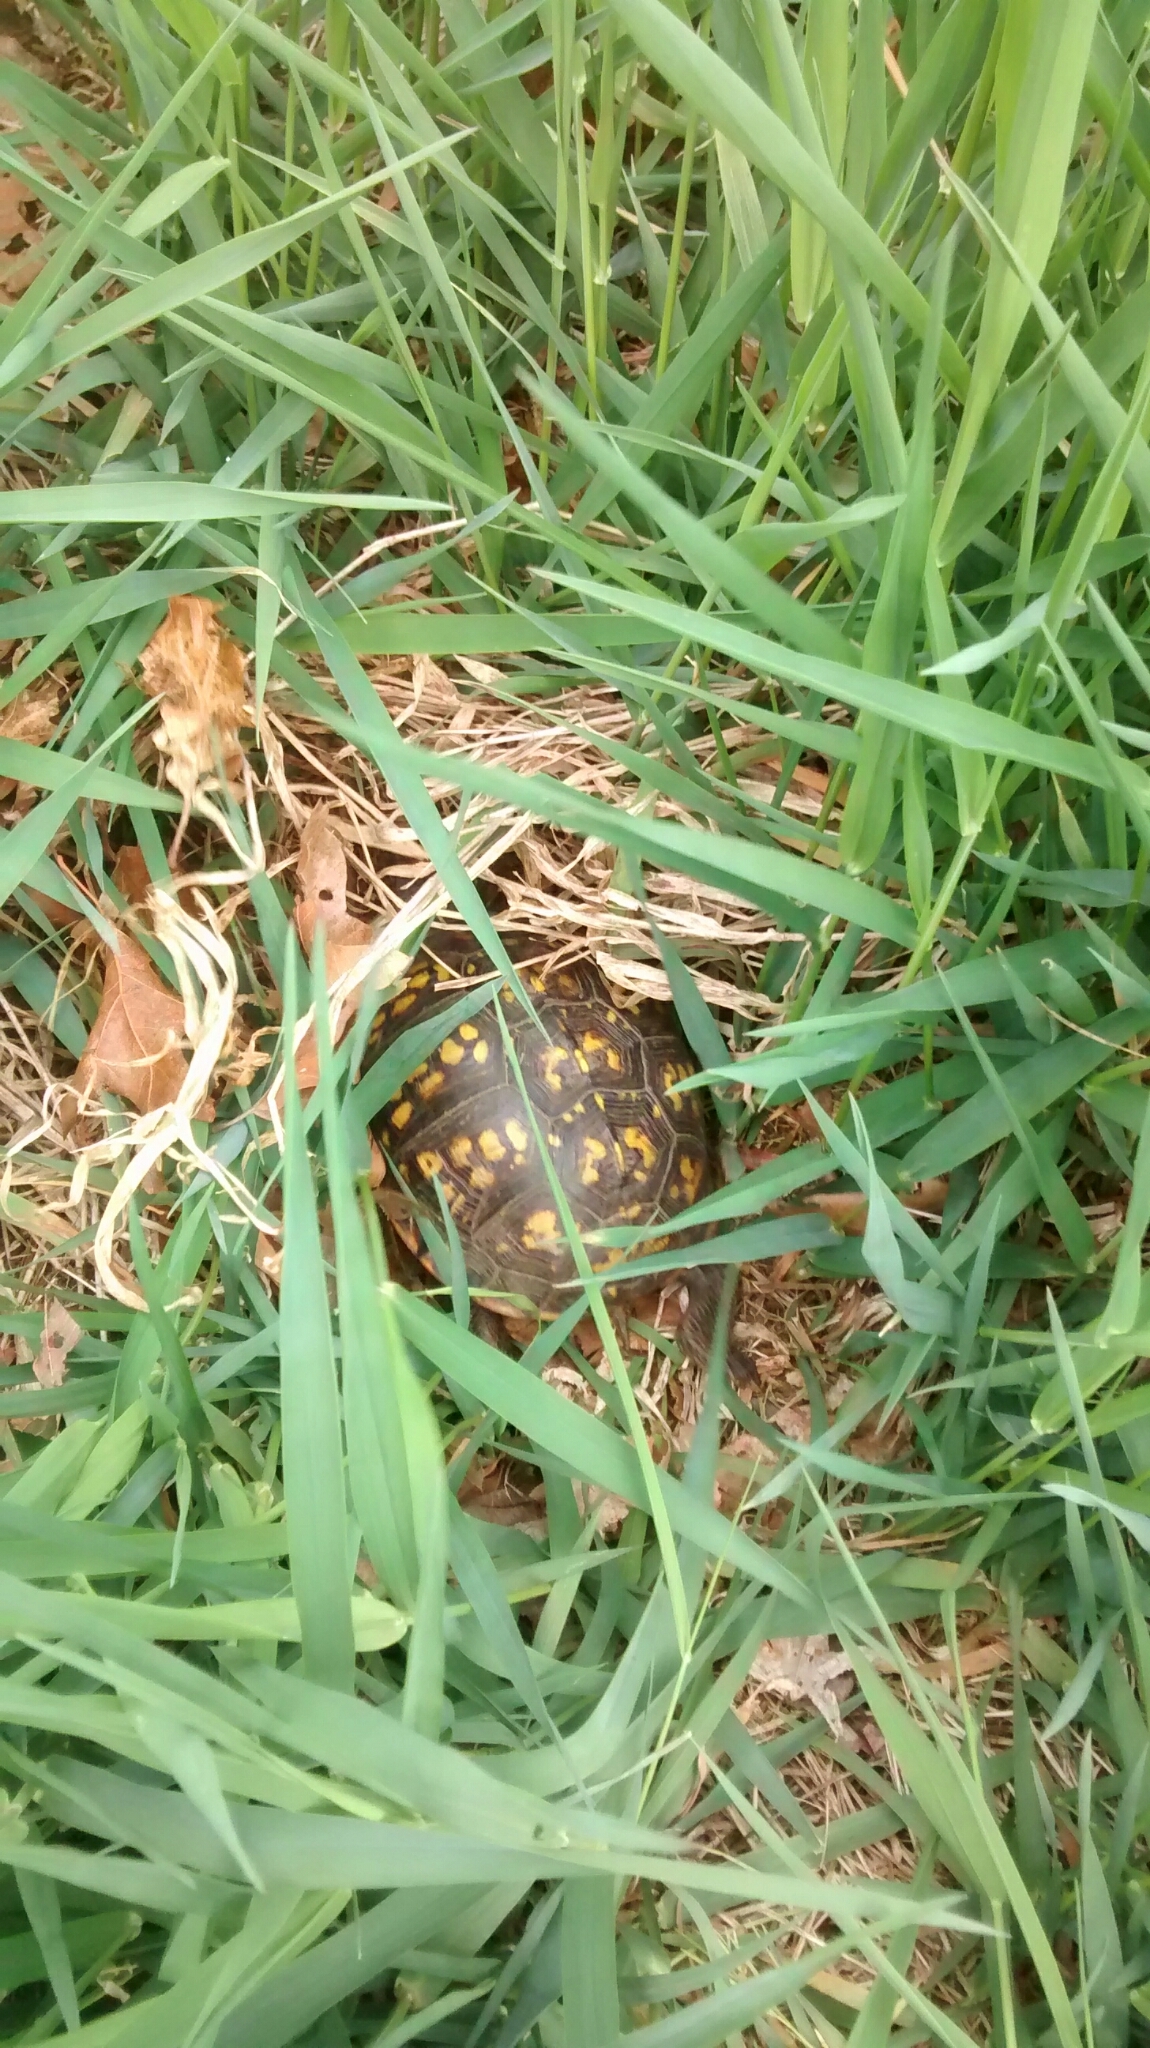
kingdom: Animalia
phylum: Chordata
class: Testudines
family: Emydidae
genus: Terrapene
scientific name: Terrapene carolina
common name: Common box turtle
